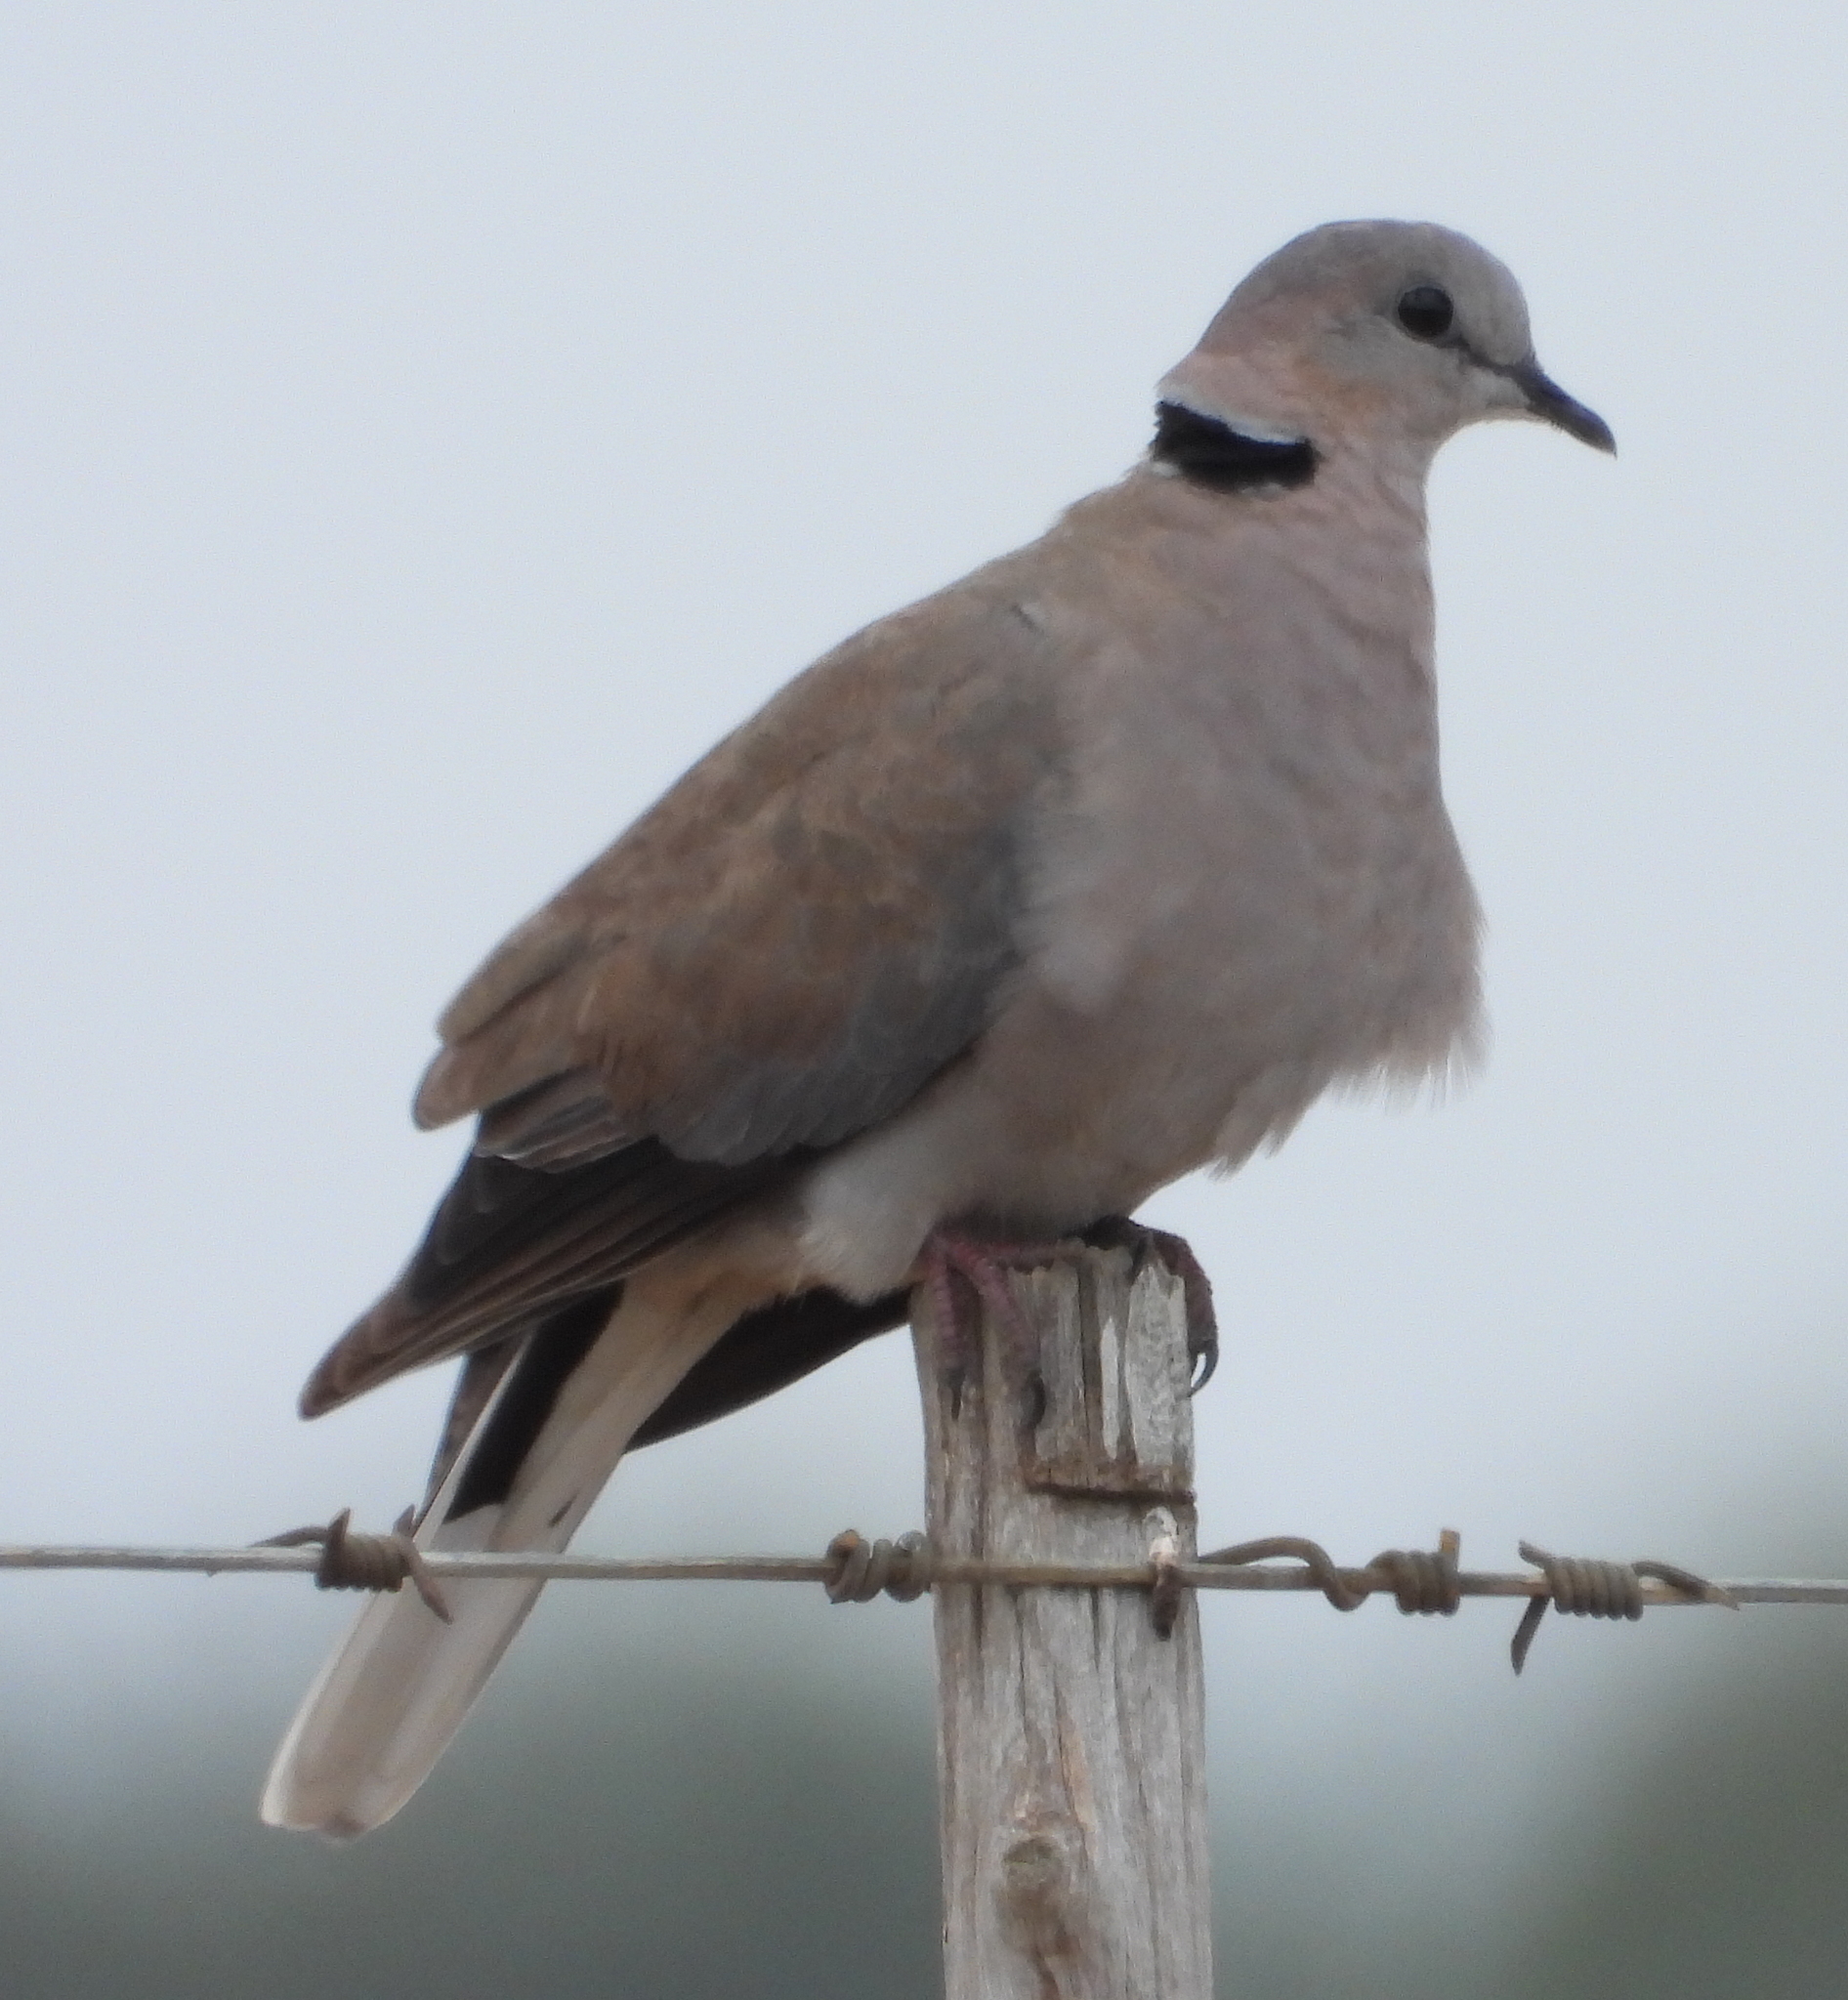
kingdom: Animalia
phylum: Chordata
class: Aves
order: Columbiformes
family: Columbidae
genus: Streptopelia
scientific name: Streptopelia capicola
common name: Ring-necked dove
